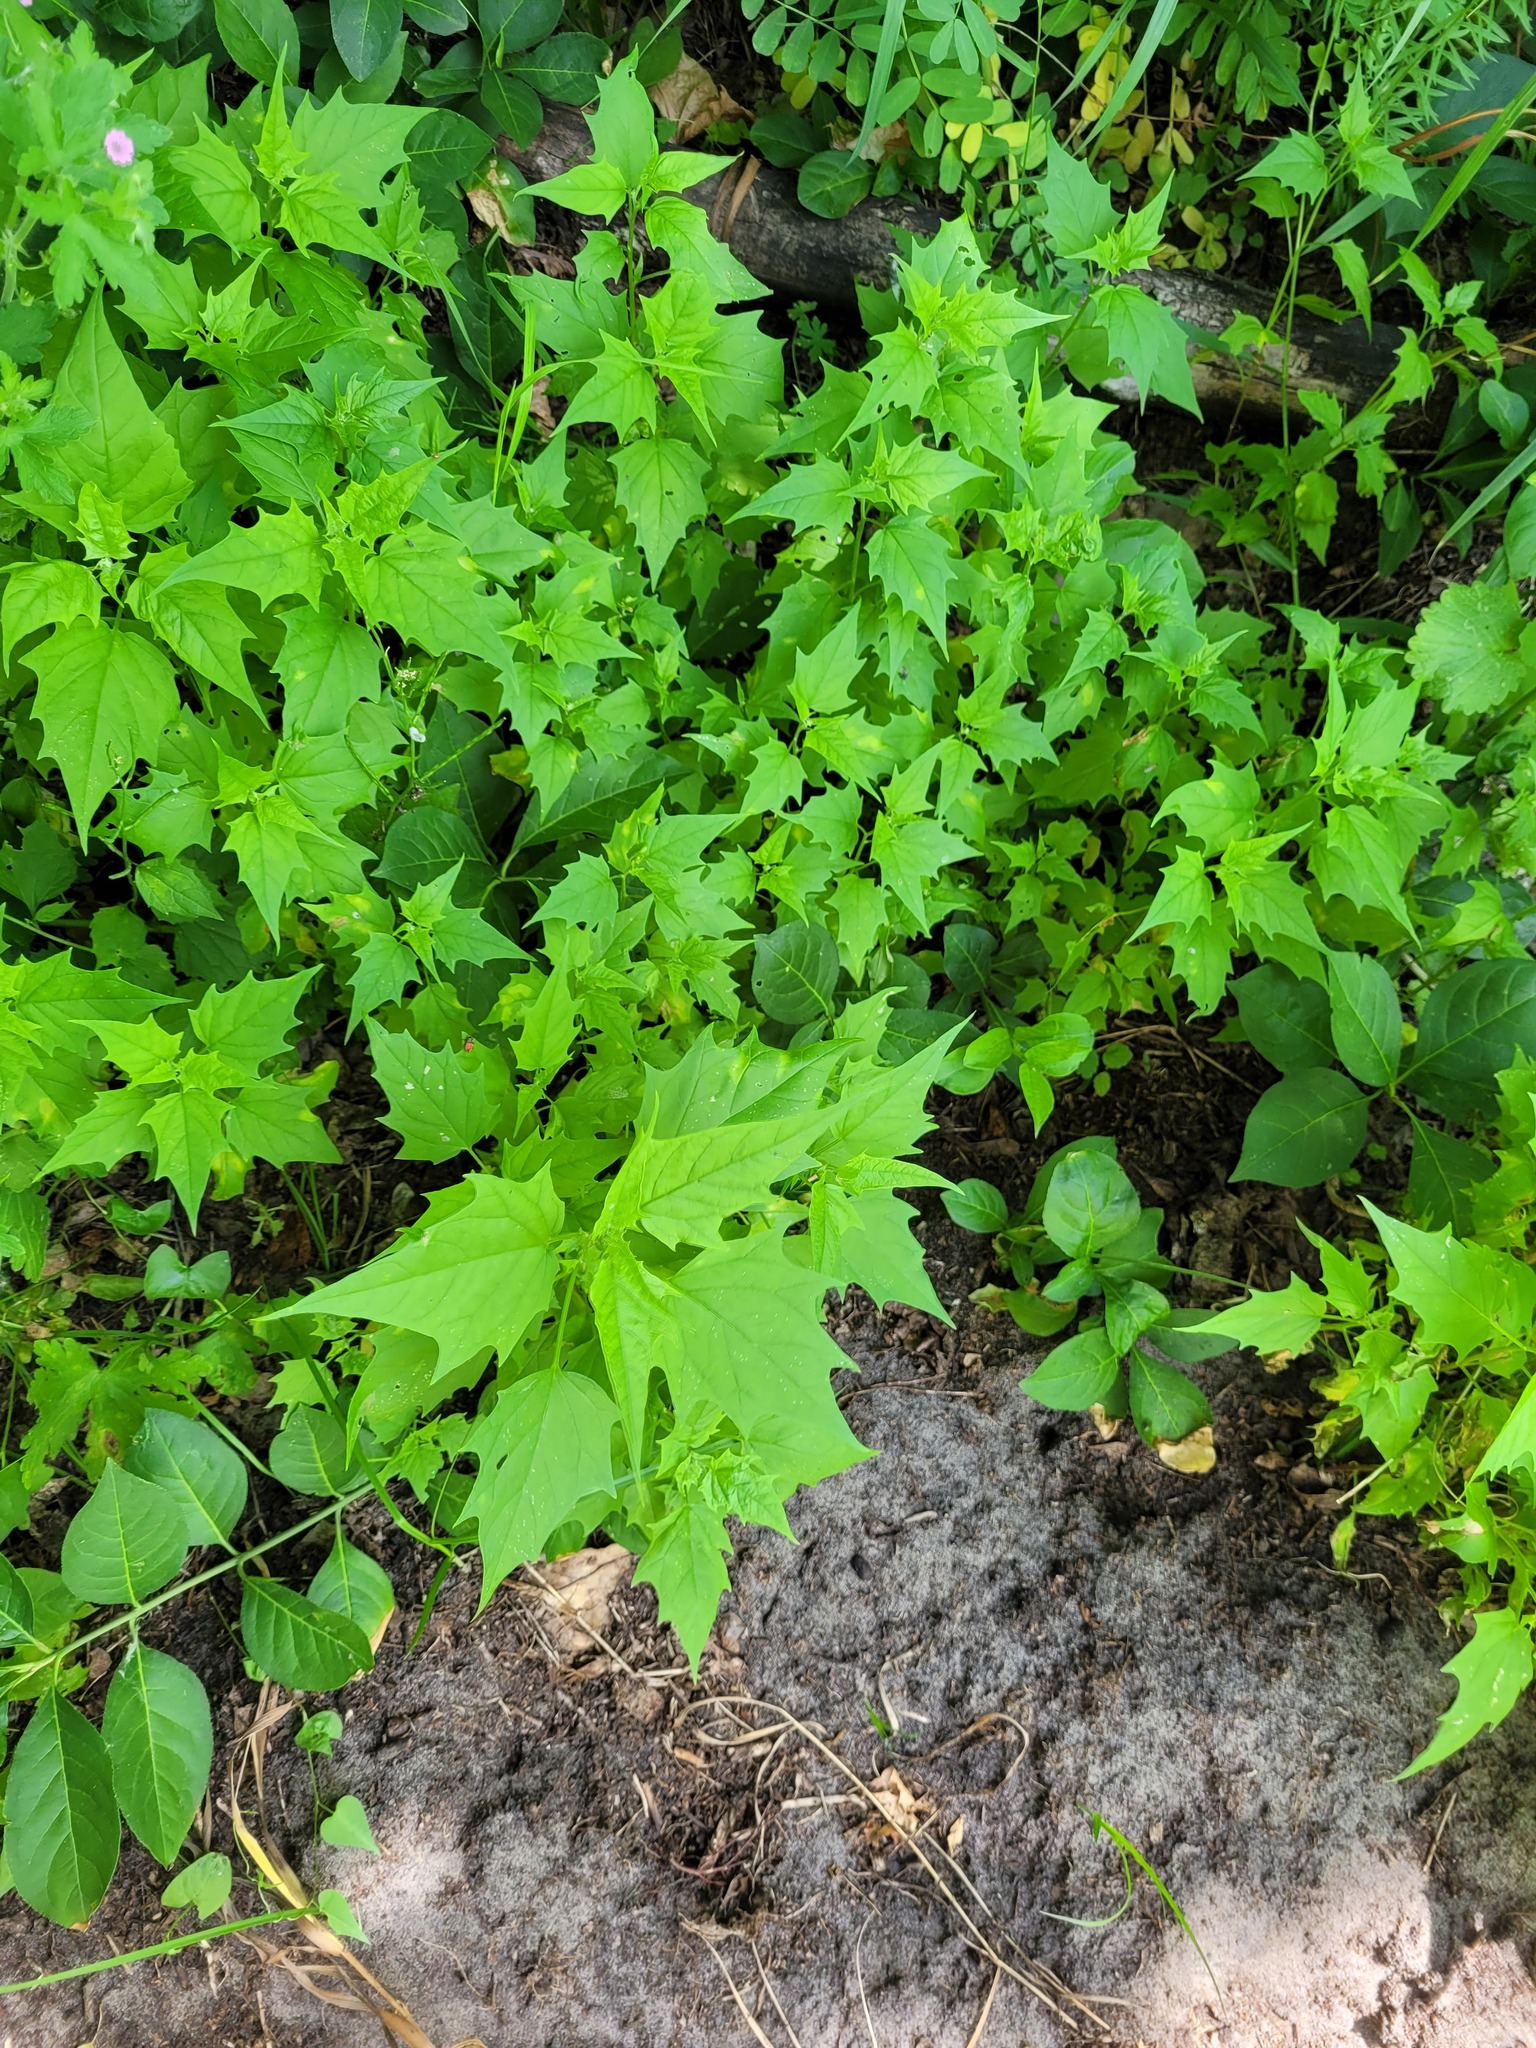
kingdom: Plantae
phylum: Tracheophyta
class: Magnoliopsida
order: Caryophyllales
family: Amaranthaceae
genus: Chenopodiastrum
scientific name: Chenopodiastrum hybridum
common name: Mapleleaf goosefoot
